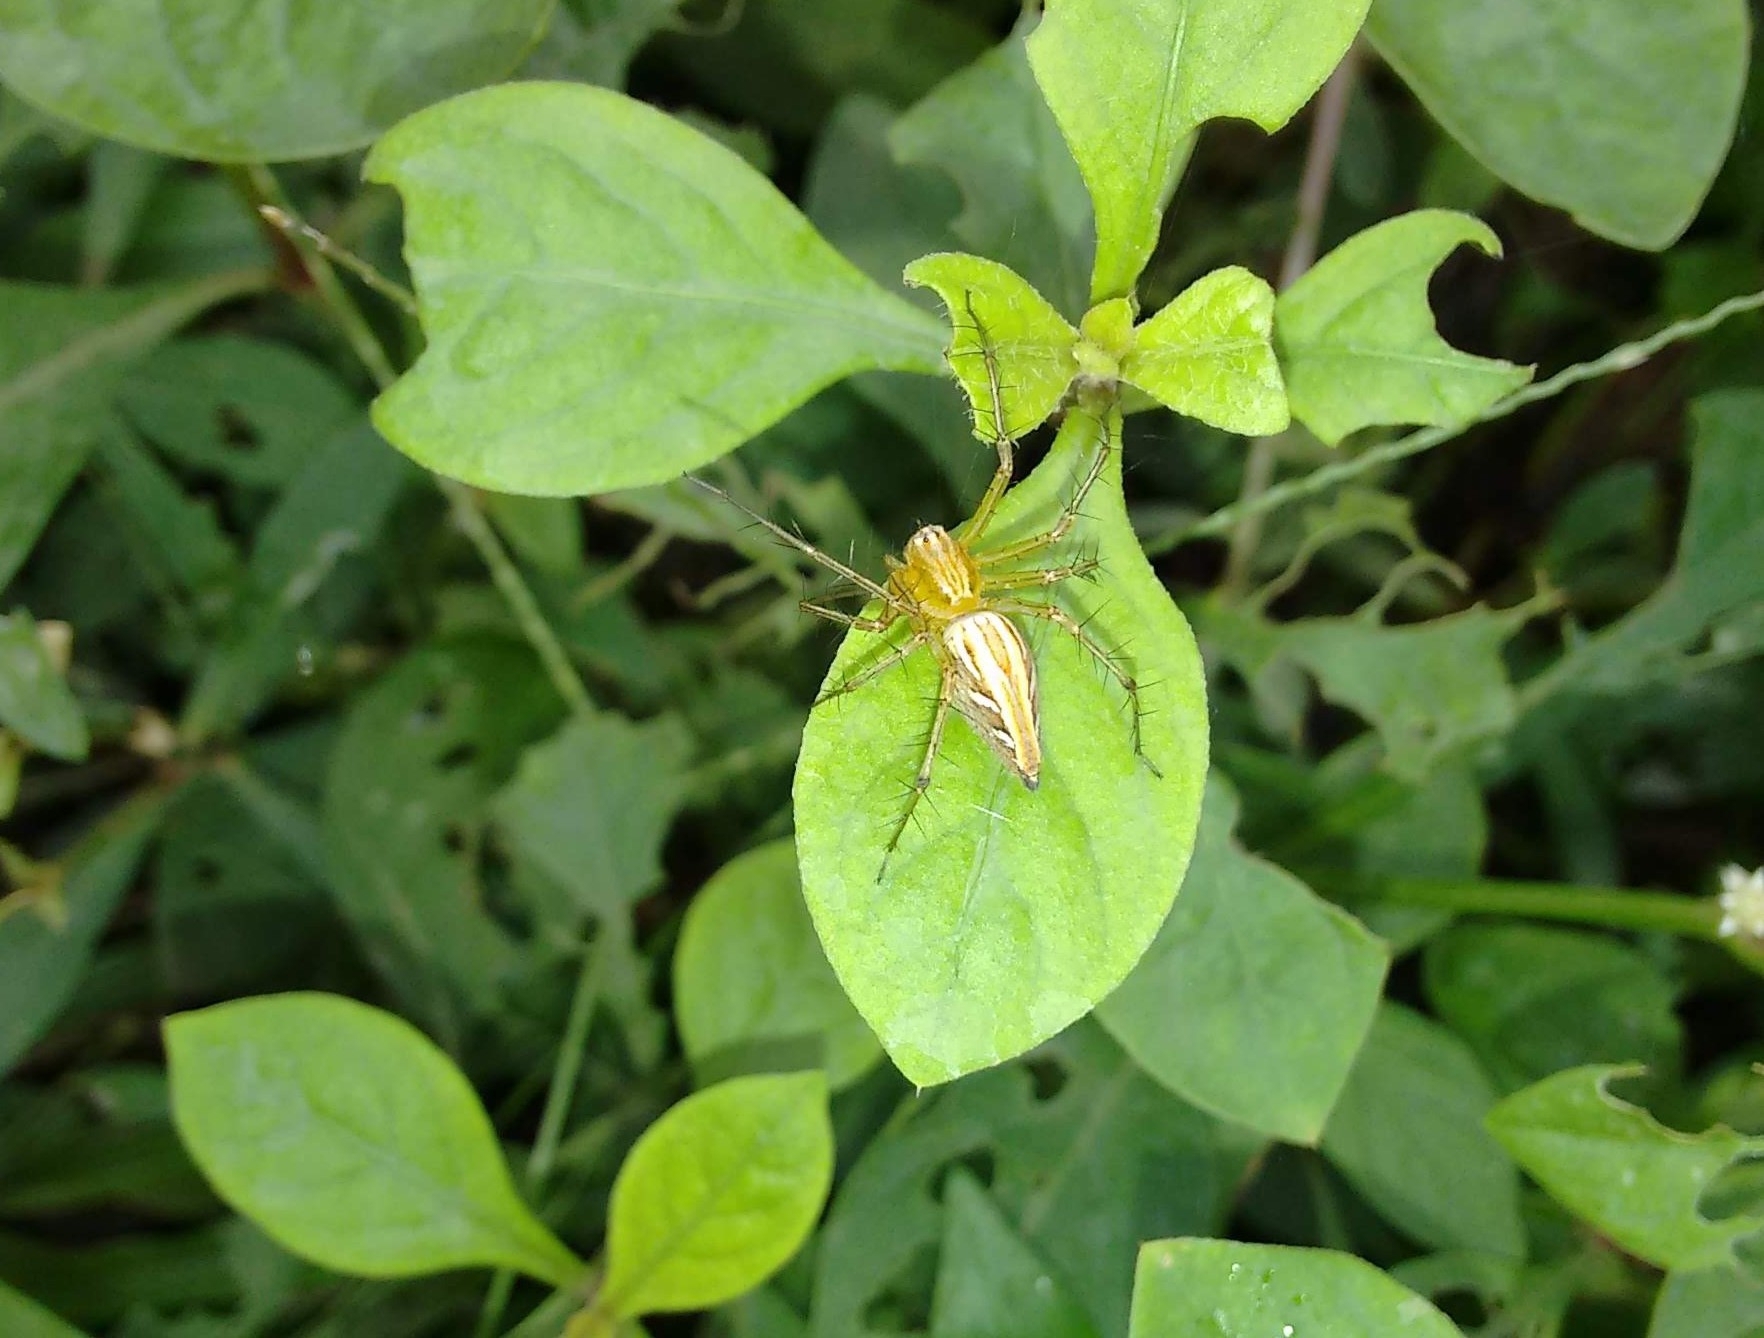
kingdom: Animalia
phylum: Arthropoda
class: Arachnida
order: Araneae
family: Oxyopidae
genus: Oxyopes
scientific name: Oxyopes sertatus
